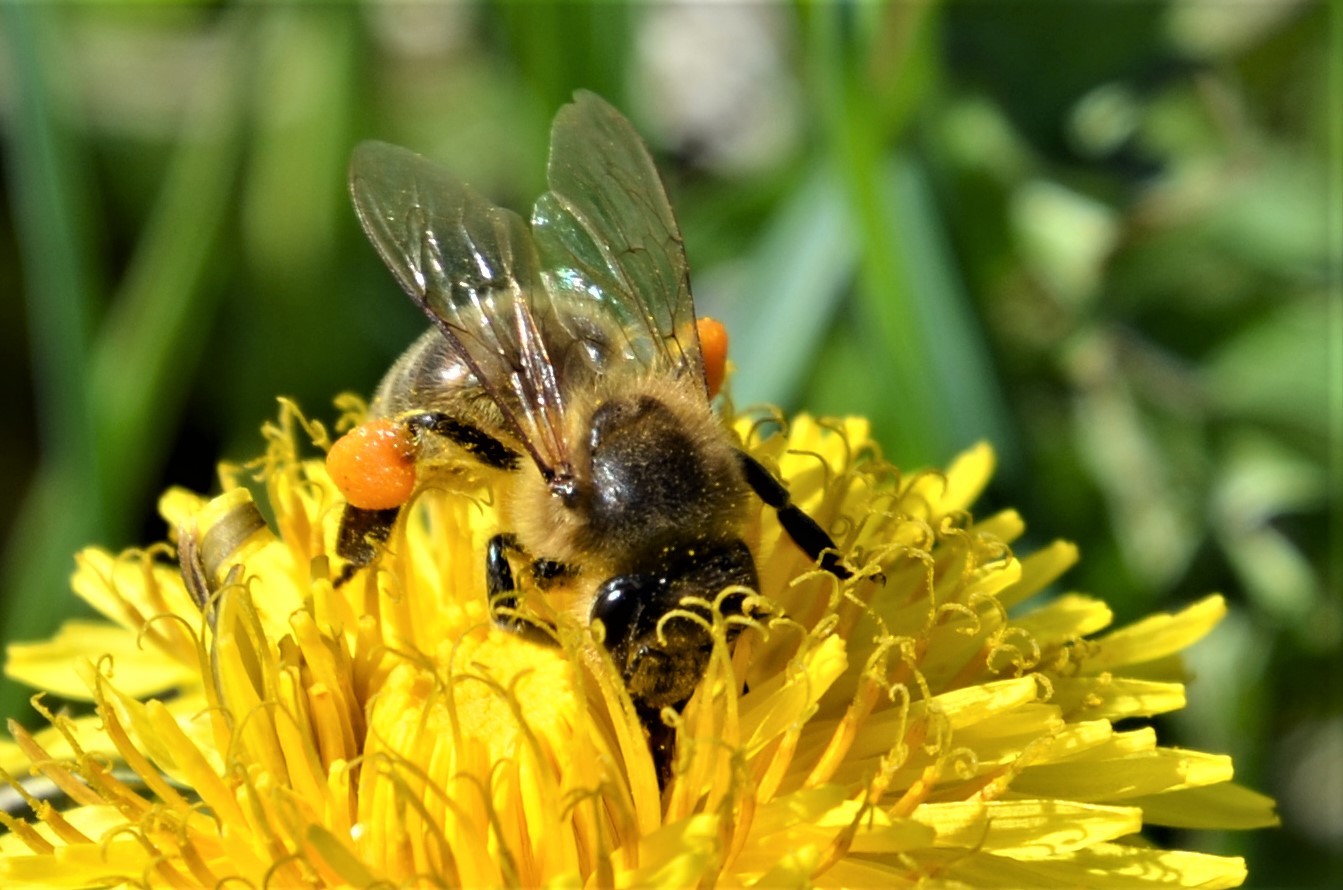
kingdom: Animalia
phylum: Arthropoda
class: Insecta
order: Hymenoptera
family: Apidae
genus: Apis
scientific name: Apis mellifera
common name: Honey bee
